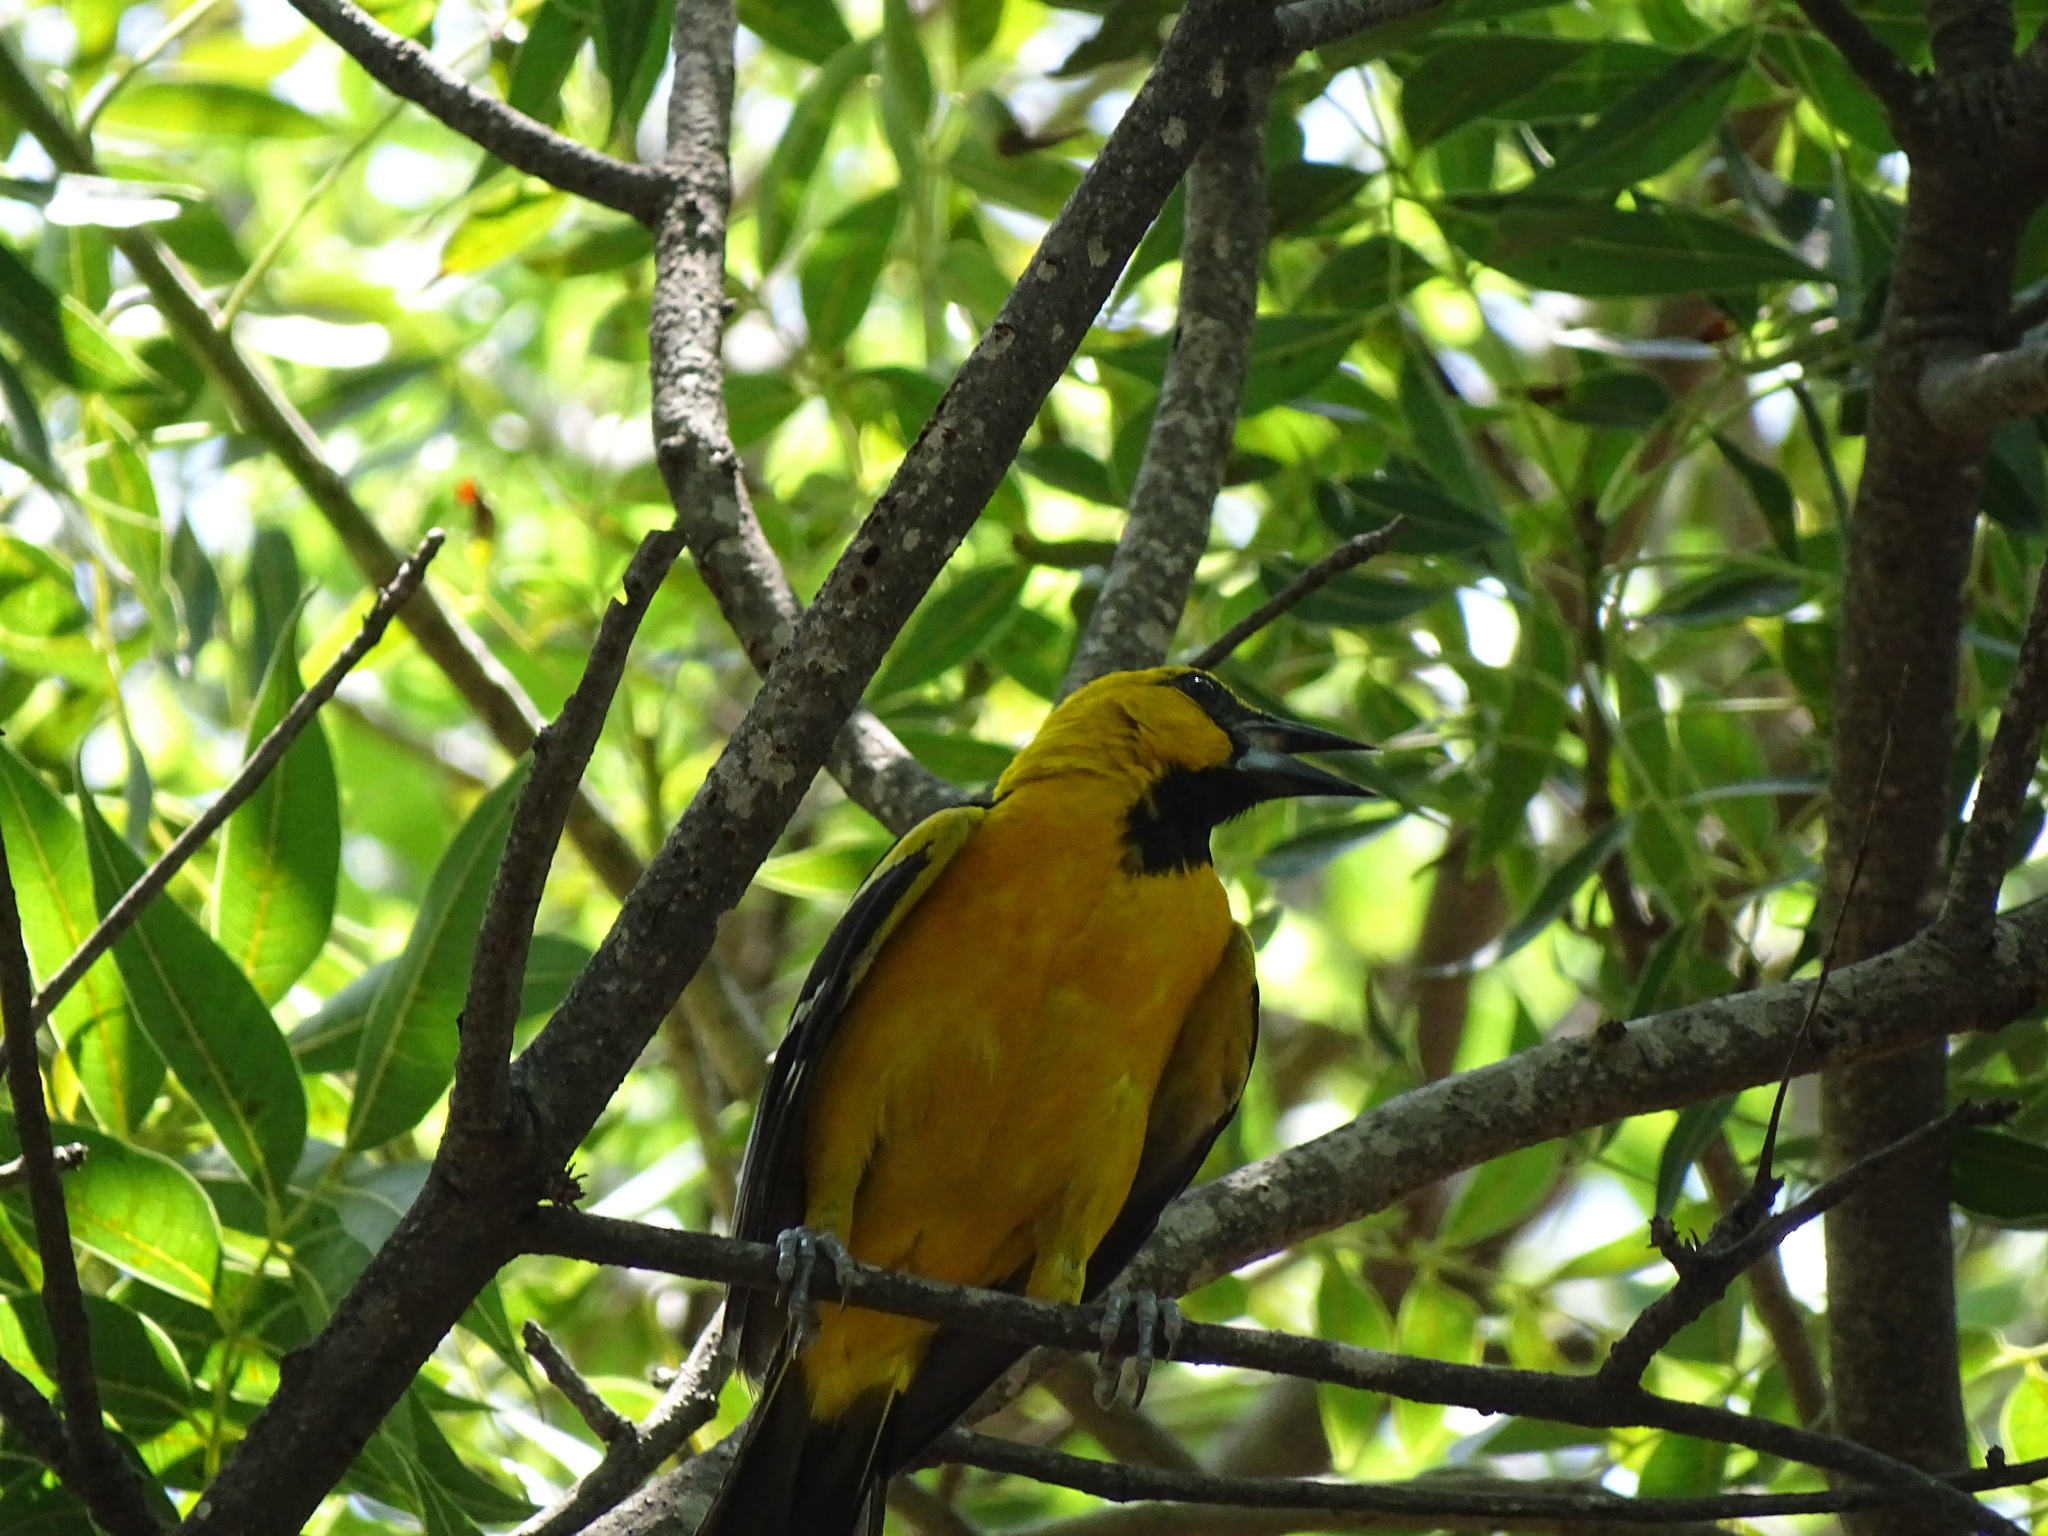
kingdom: Animalia
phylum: Chordata
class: Aves
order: Passeriformes
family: Icteridae
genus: Icterus
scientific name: Icterus pustulatus
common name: Streak-backed oriole
